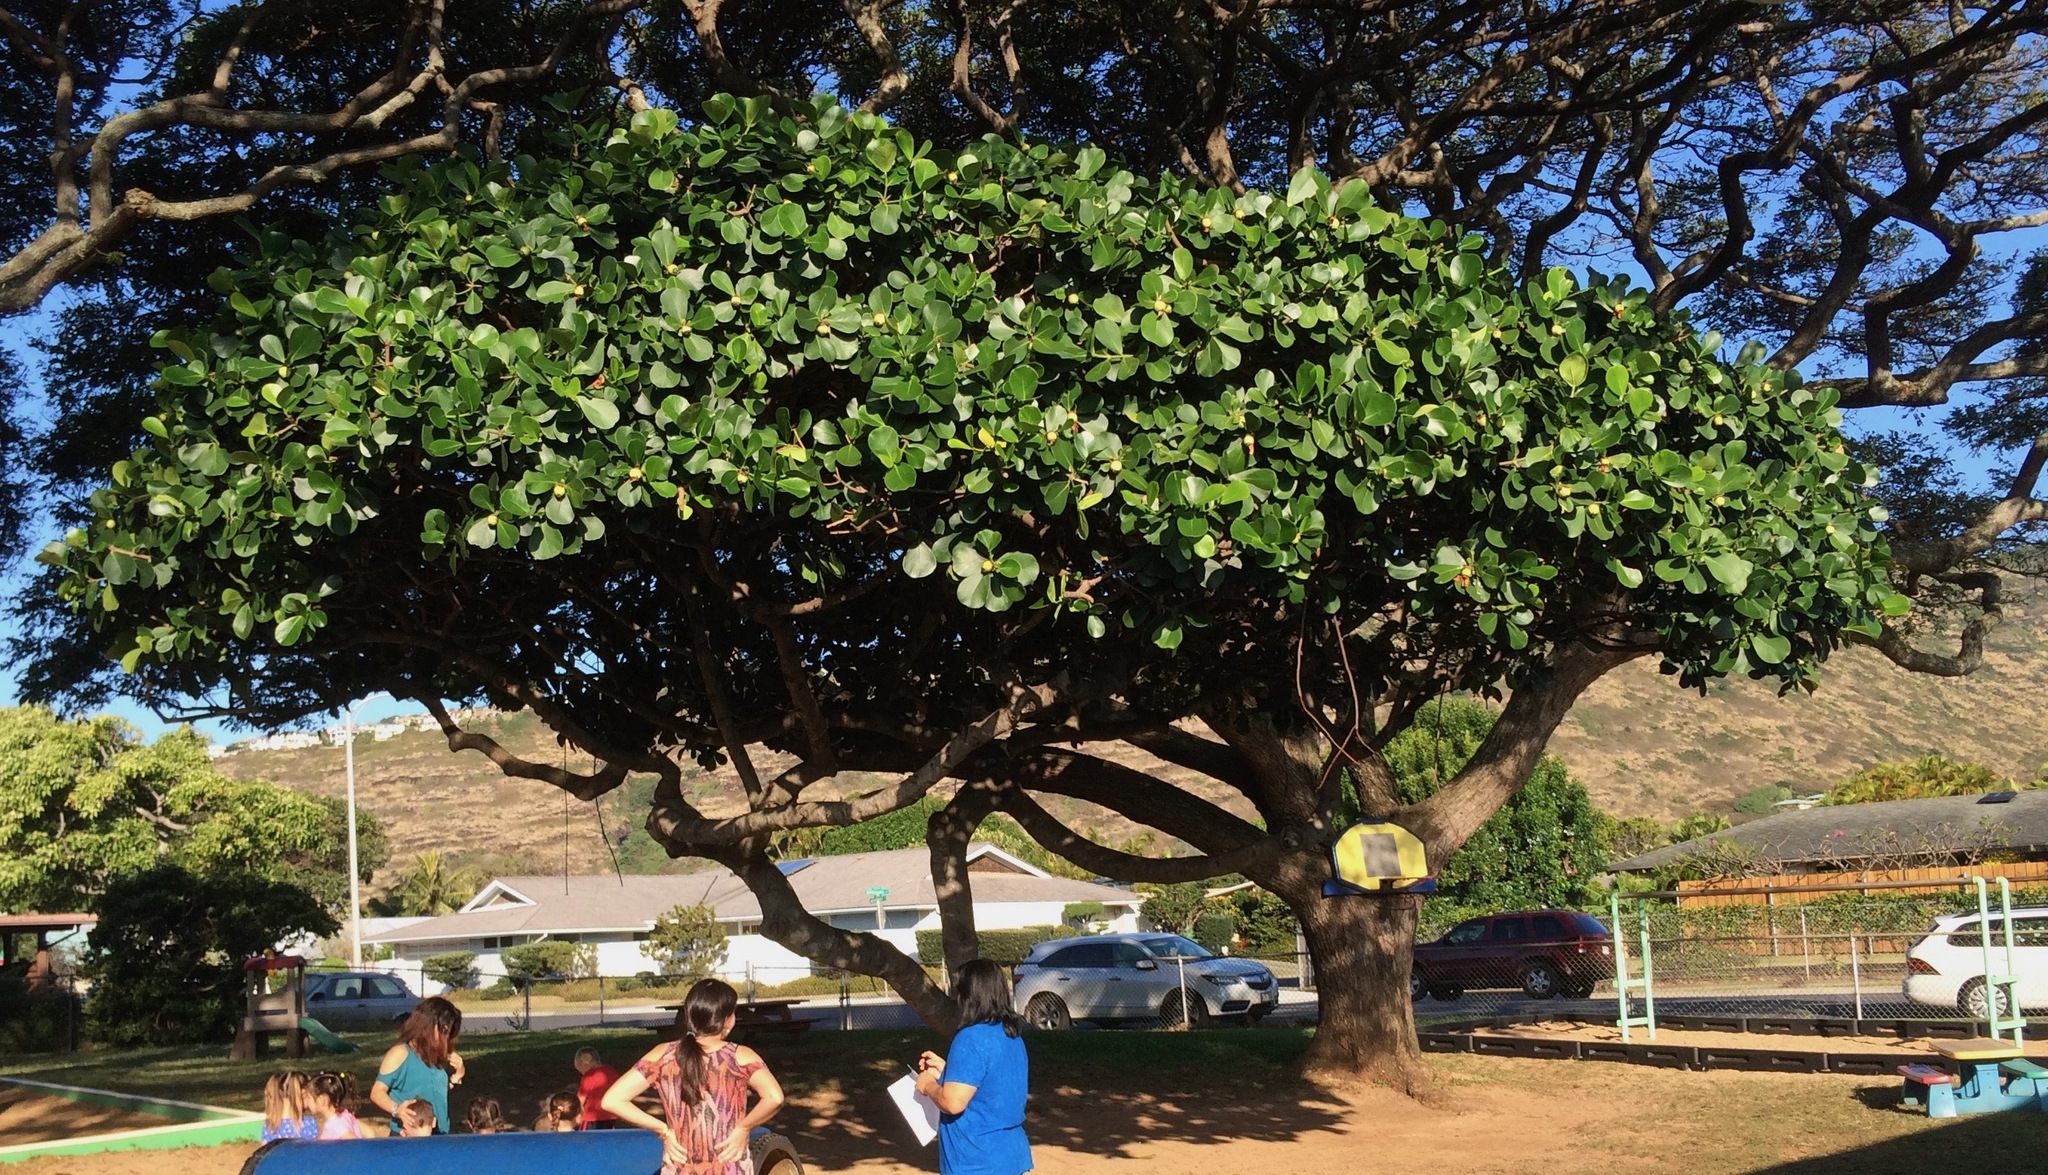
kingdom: Plantae
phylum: Tracheophyta
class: Magnoliopsida
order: Malpighiales
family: Clusiaceae
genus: Clusia
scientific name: Clusia rosea
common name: Scotch attorney
